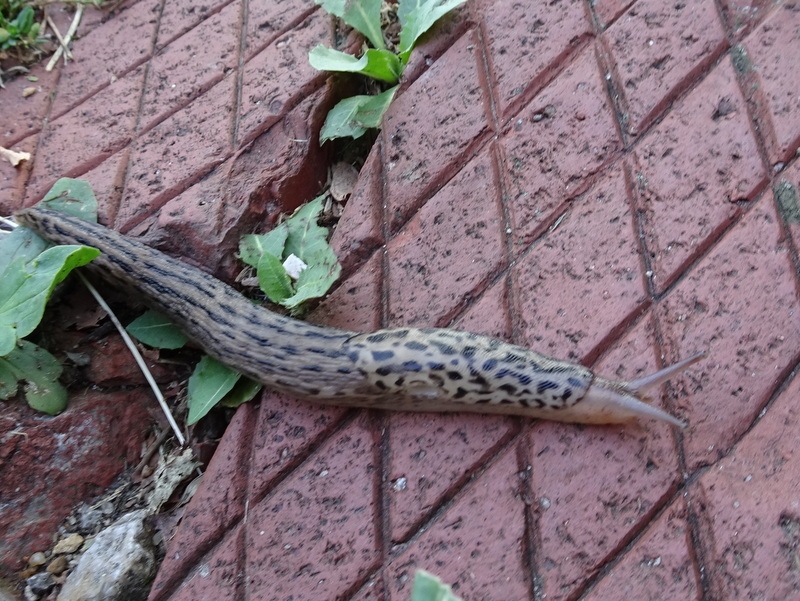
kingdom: Animalia
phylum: Mollusca
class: Gastropoda
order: Stylommatophora
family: Limacidae
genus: Limax
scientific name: Limax maximus
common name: Great grey slug
